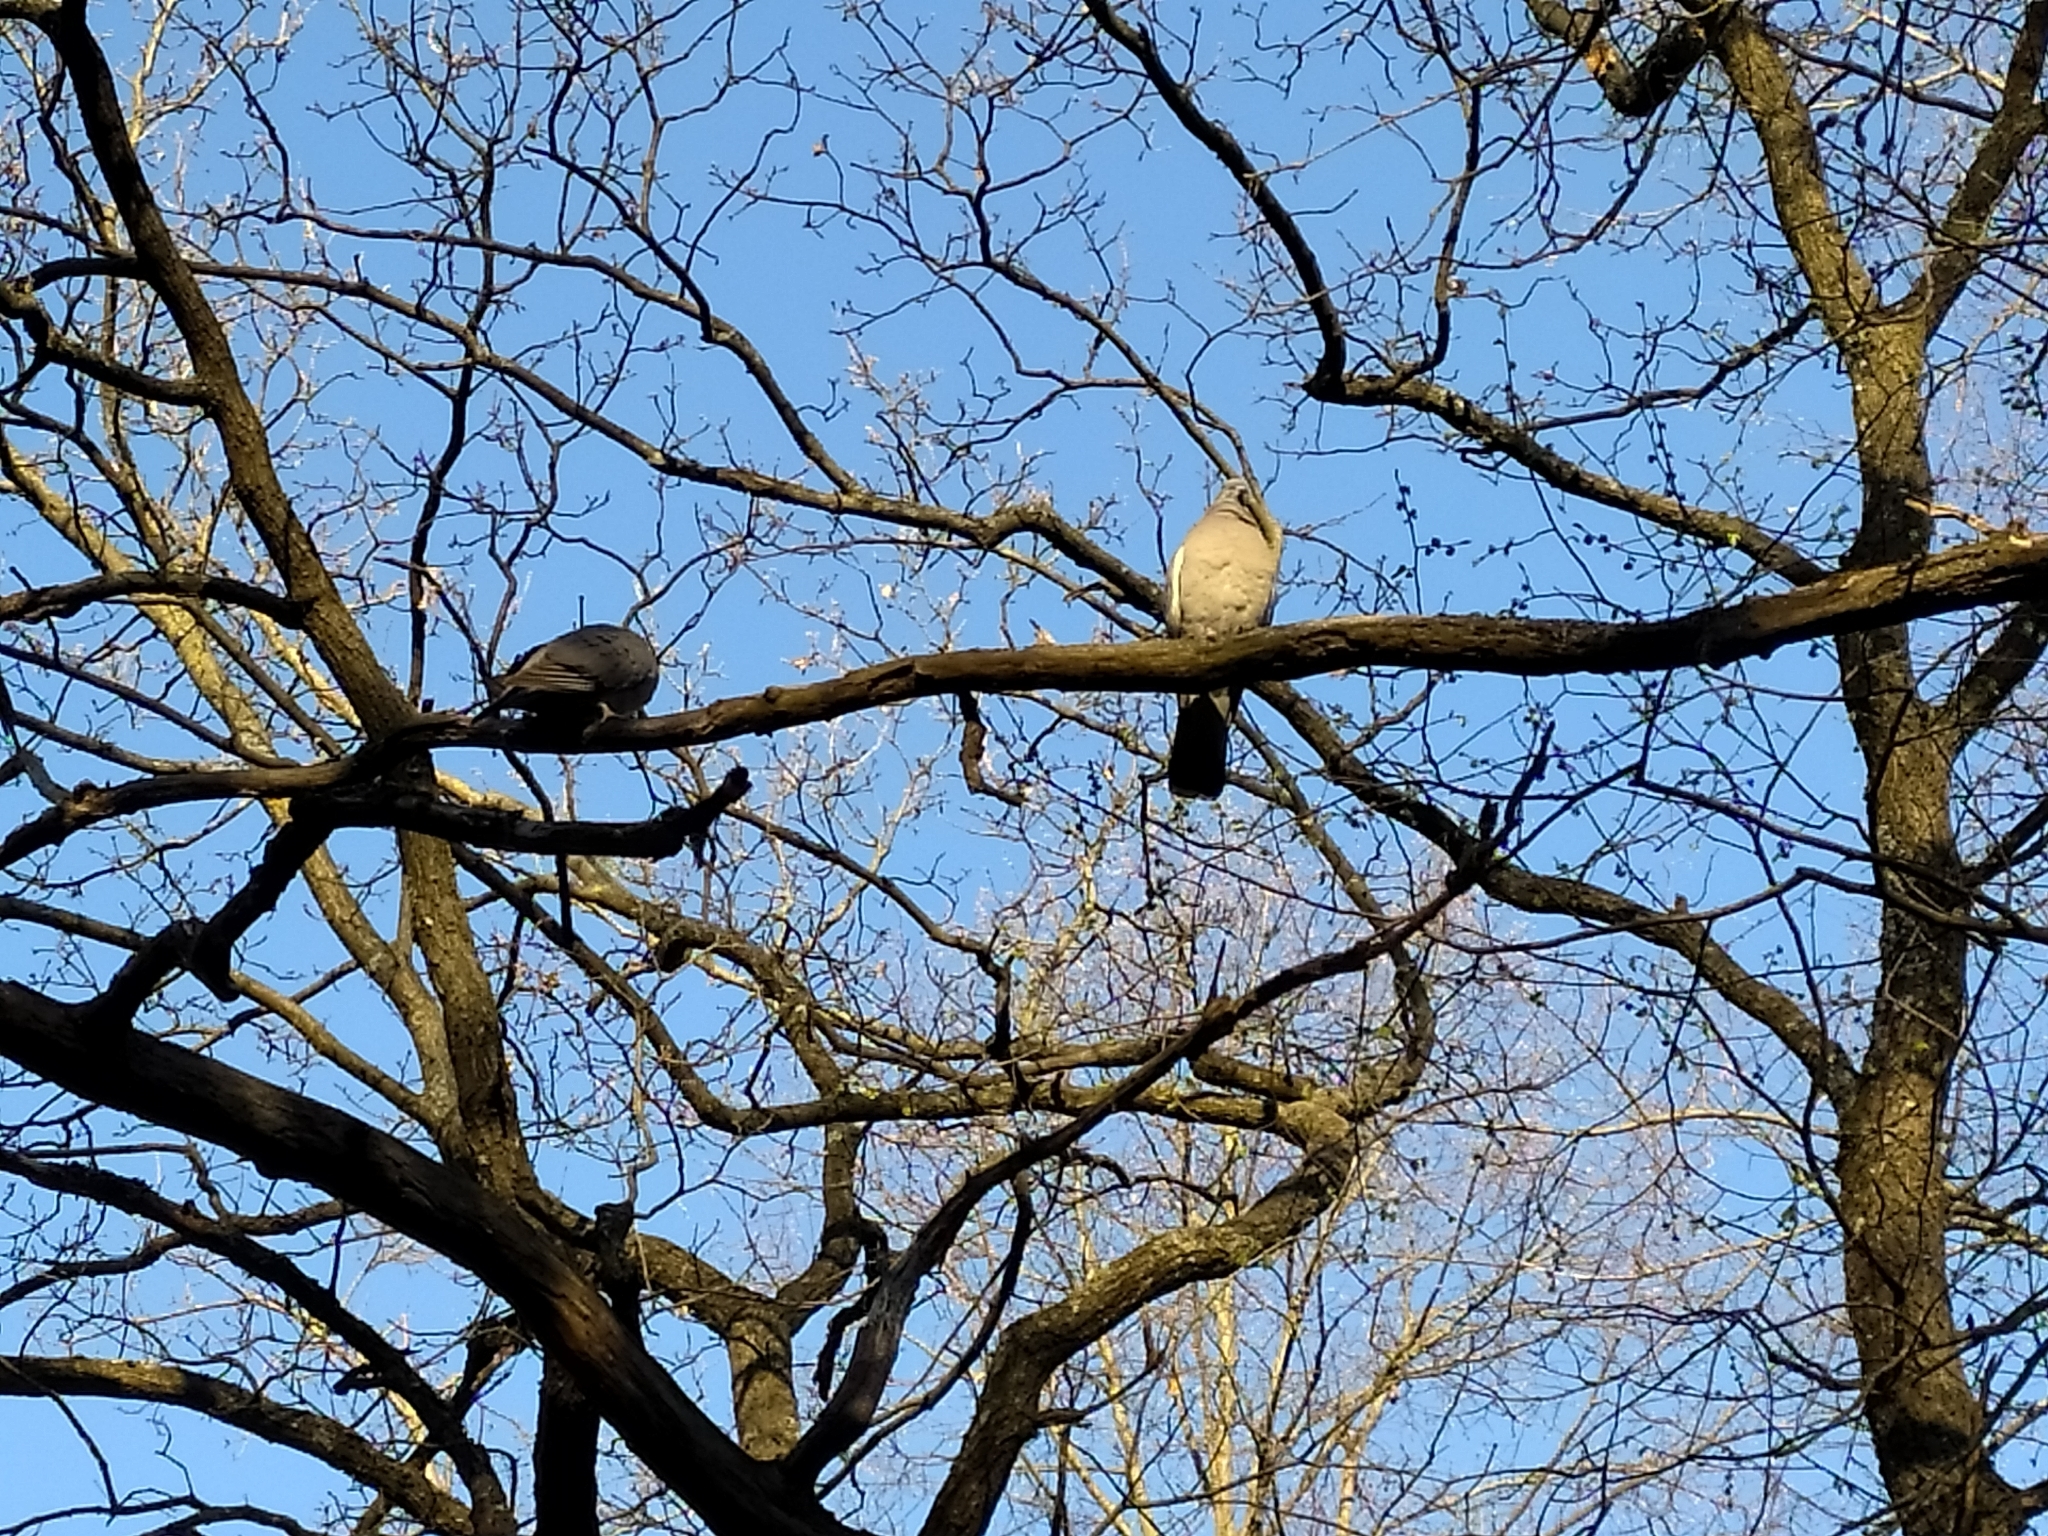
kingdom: Animalia
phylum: Chordata
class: Aves
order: Columbiformes
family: Columbidae
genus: Columba
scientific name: Columba palumbus
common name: Common wood pigeon
